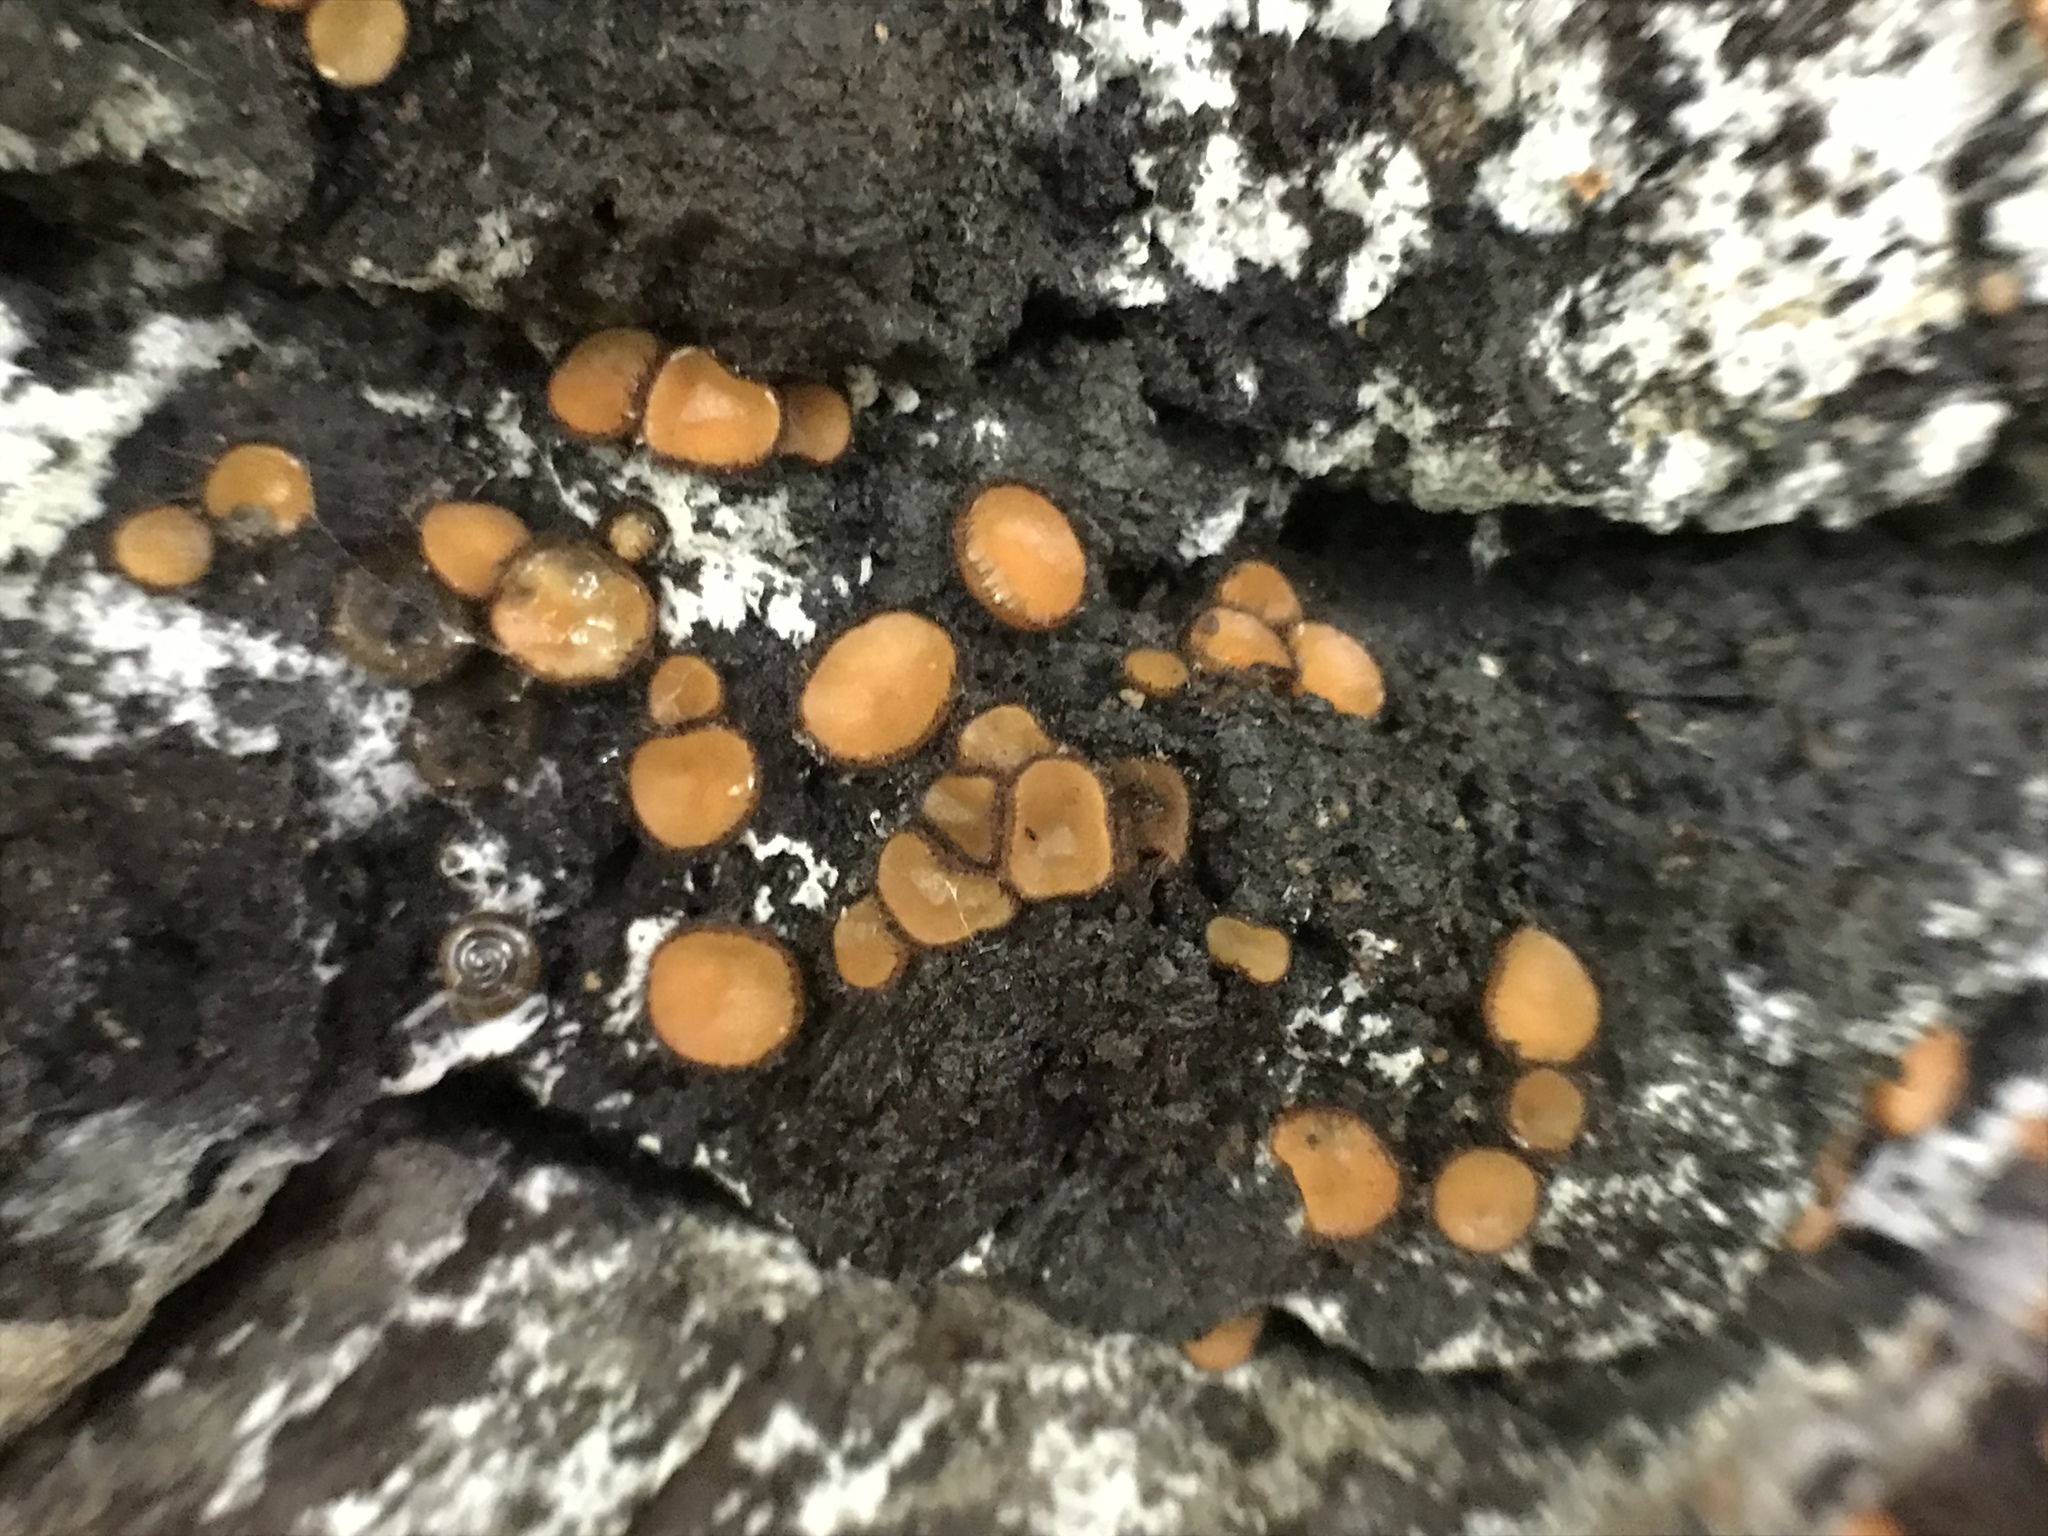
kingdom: Fungi
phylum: Ascomycota
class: Pezizomycetes
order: Pezizales
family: Pyronemataceae
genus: Scutellinia
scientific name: Scutellinia erinaceus
